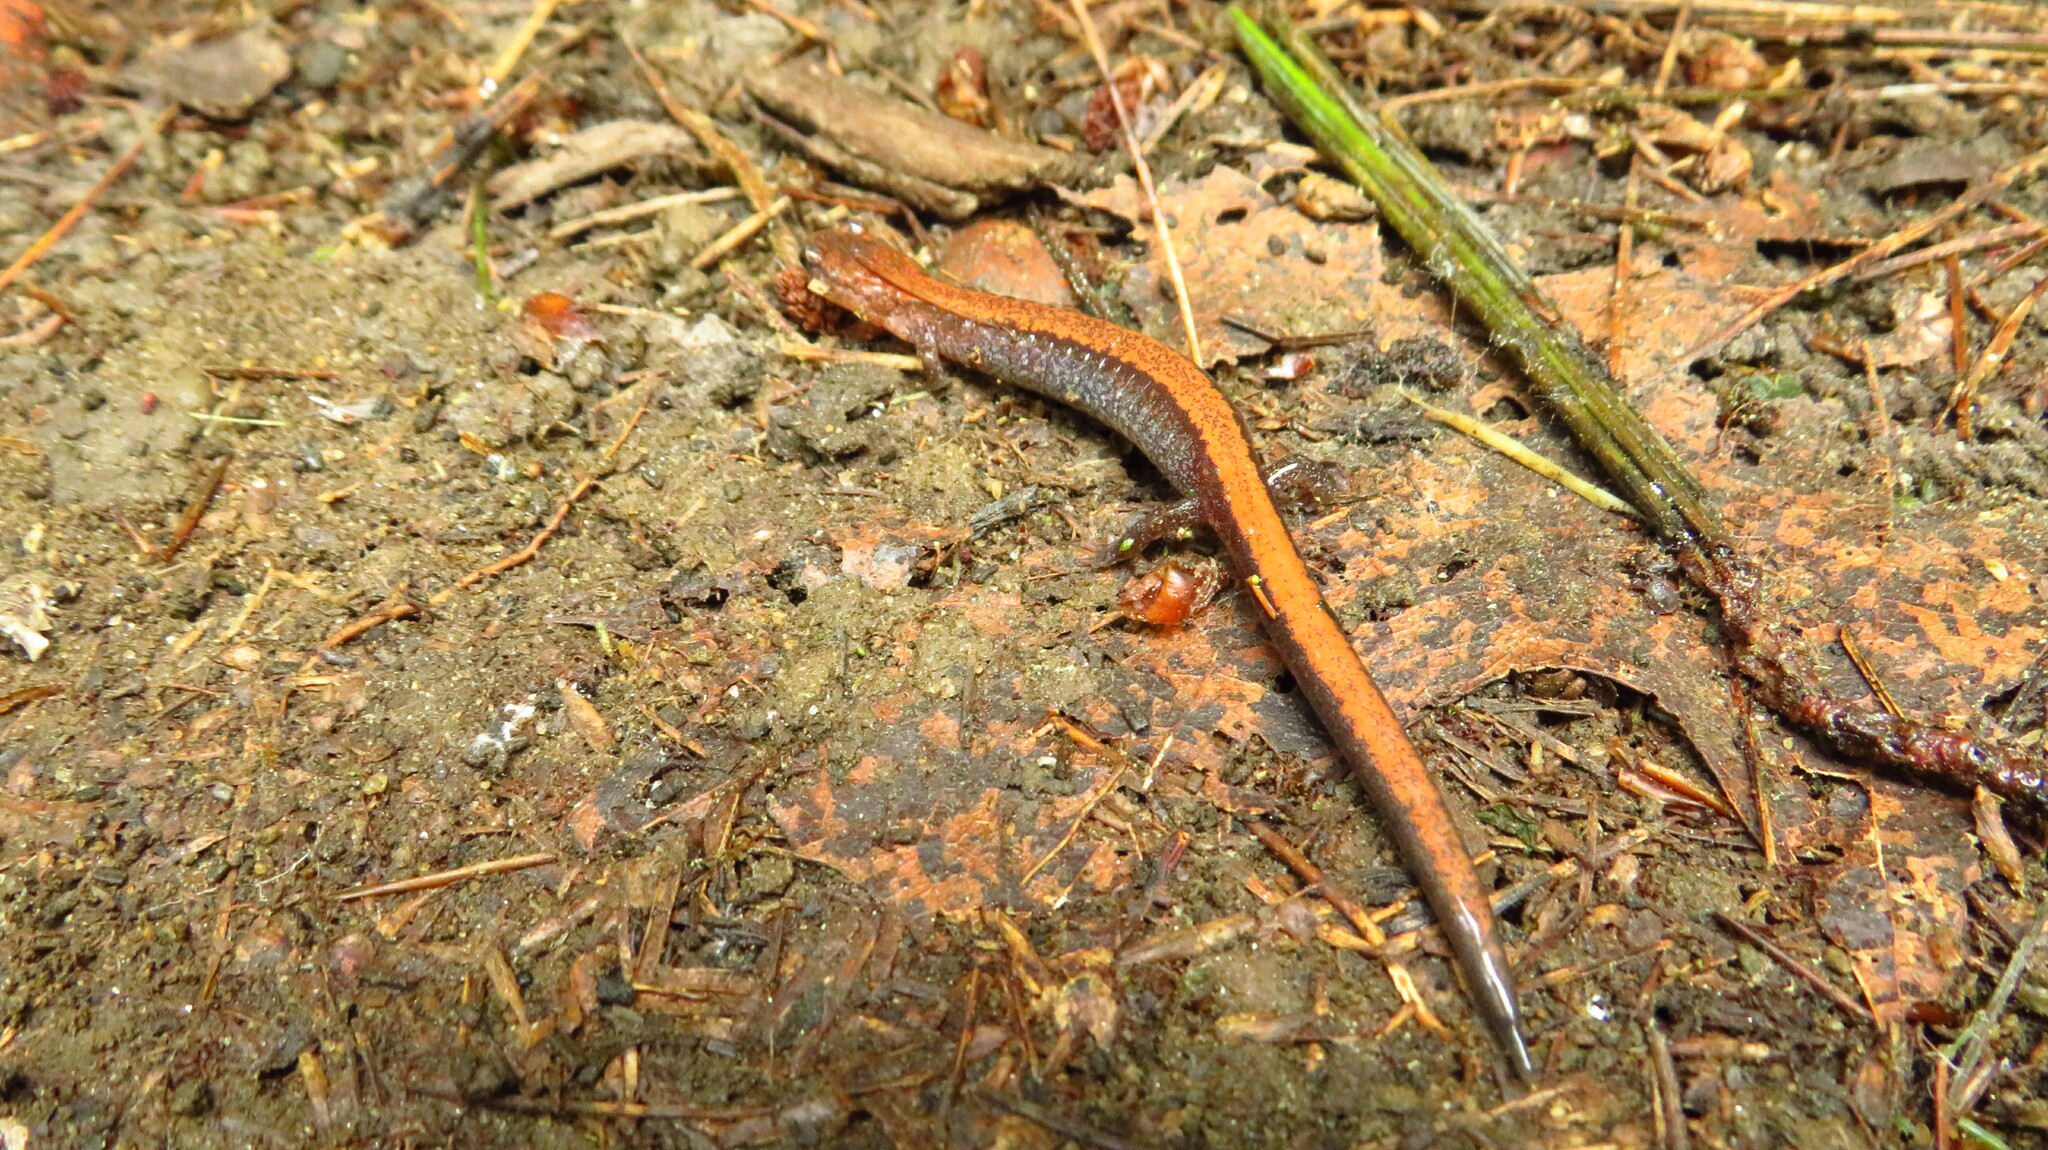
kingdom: Animalia
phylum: Chordata
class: Amphibia
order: Caudata
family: Plethodontidae
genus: Plethodon
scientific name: Plethodon cinereus
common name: Redback salamander
